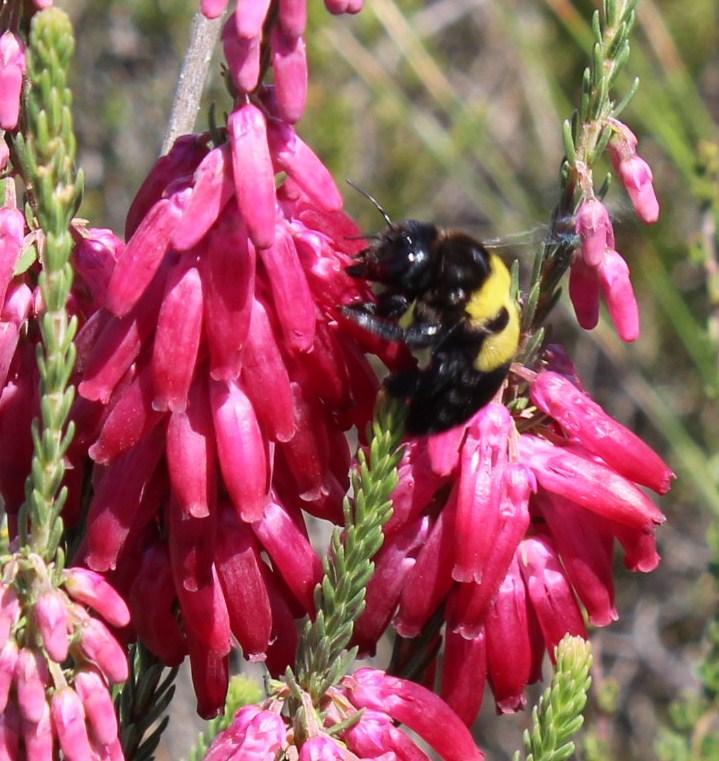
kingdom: Animalia
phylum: Arthropoda
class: Insecta
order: Hymenoptera
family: Apidae
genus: Xylocopa
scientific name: Xylocopa caffra
